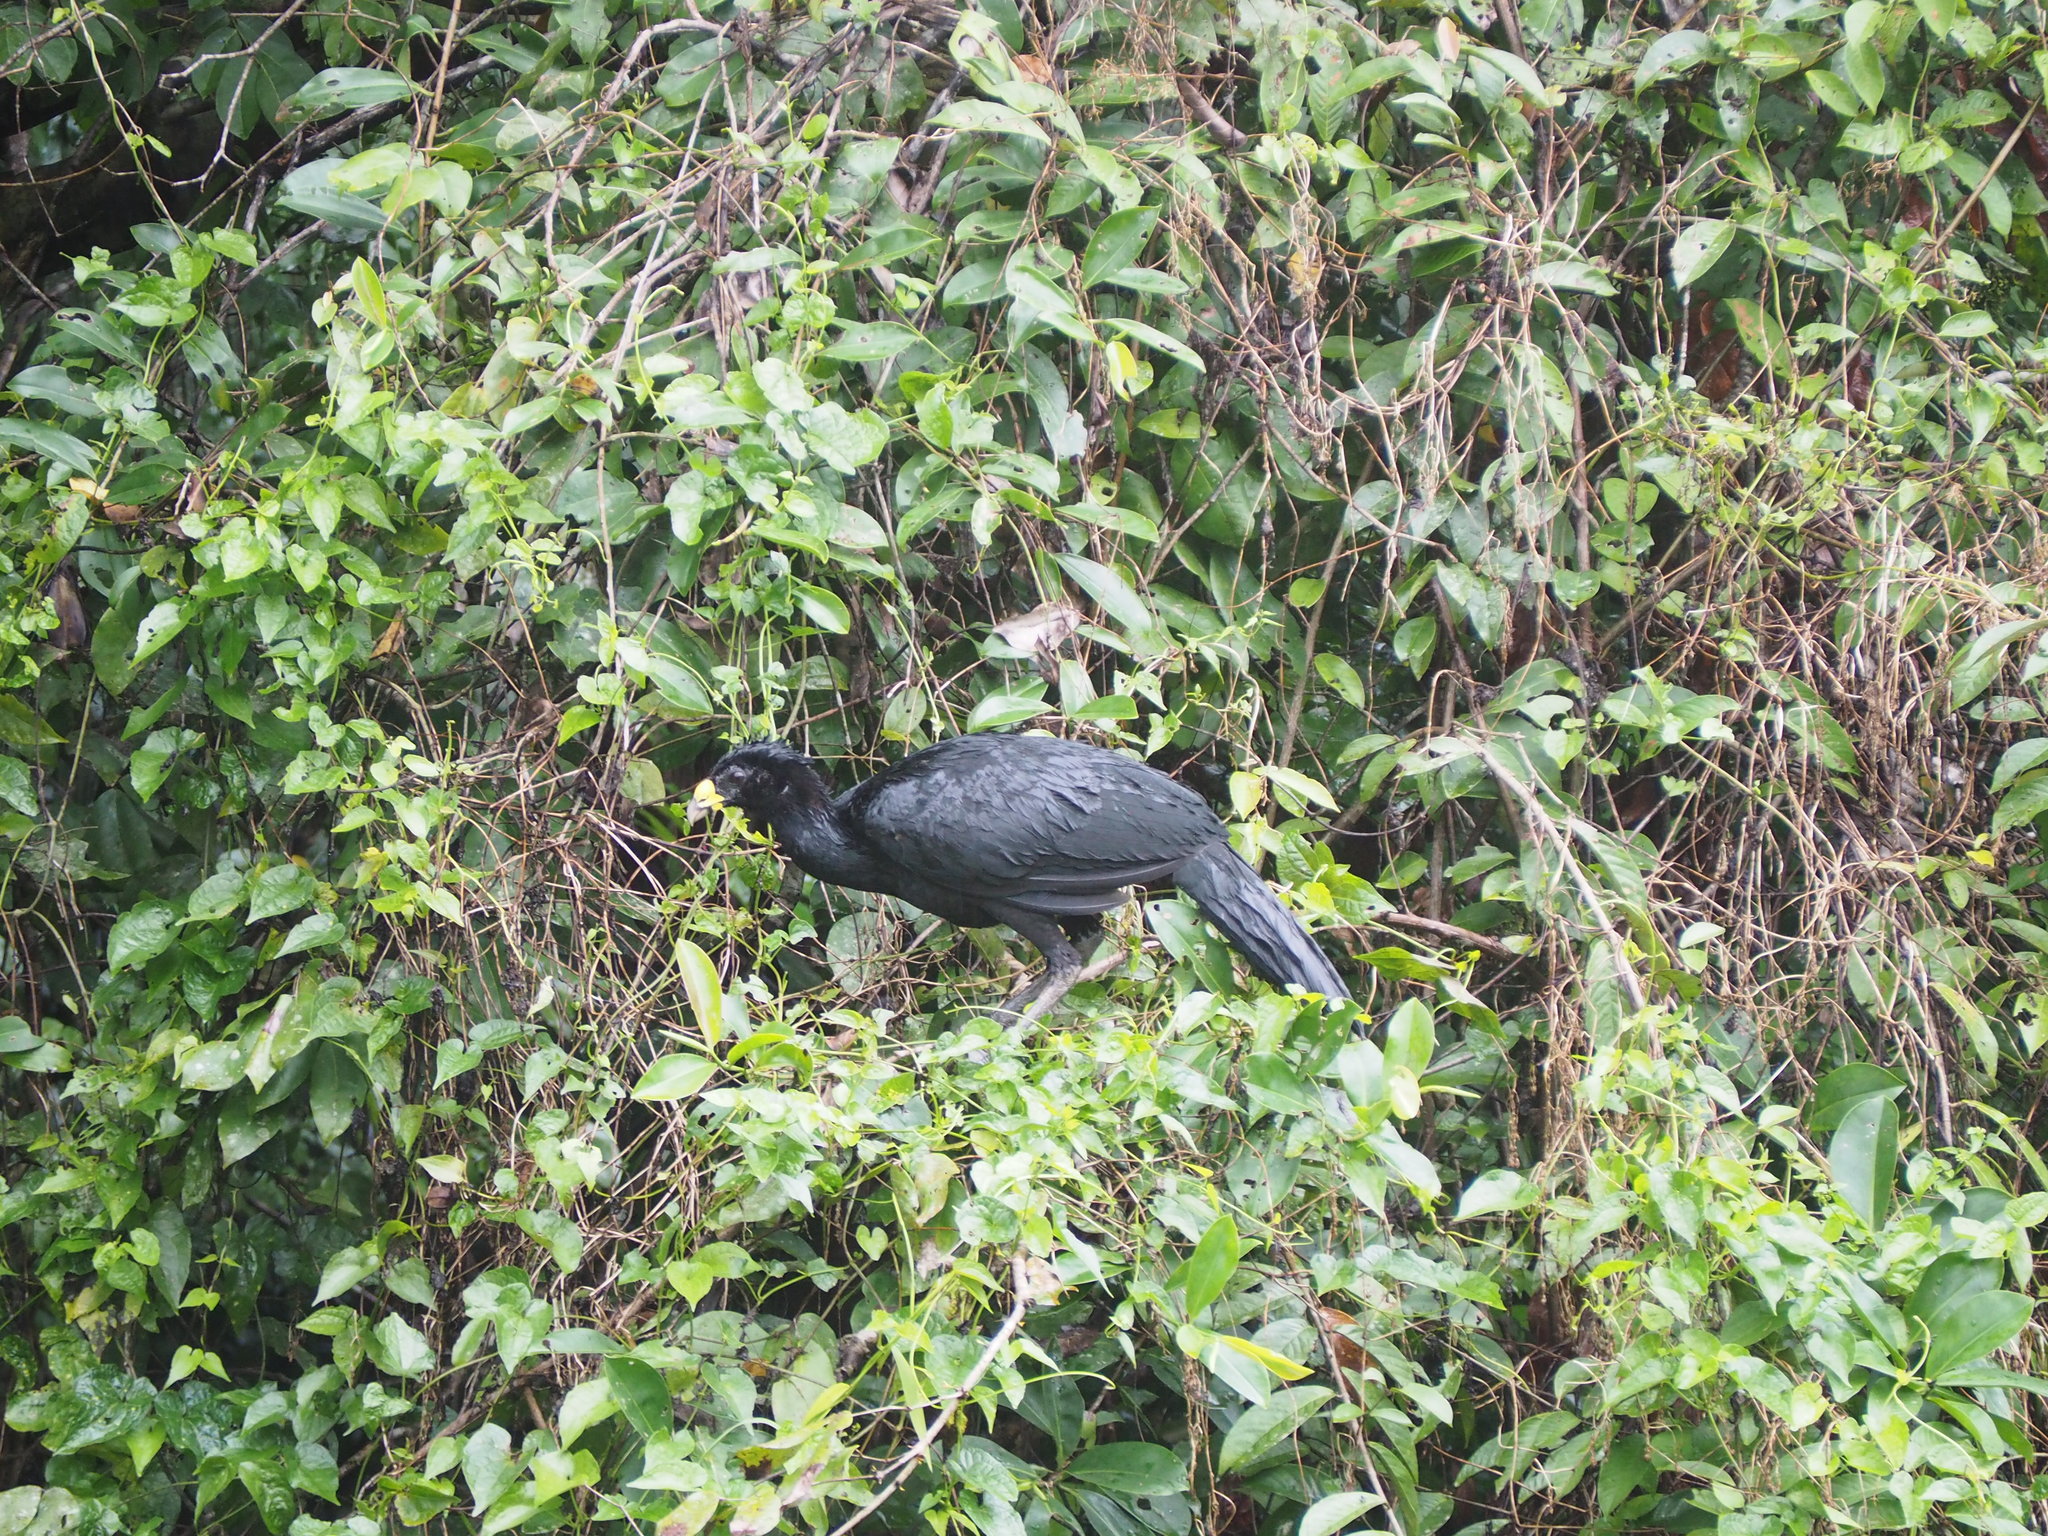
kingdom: Animalia
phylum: Chordata
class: Aves
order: Galliformes
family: Cracidae
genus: Crax
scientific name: Crax rubra
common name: Great curassow
